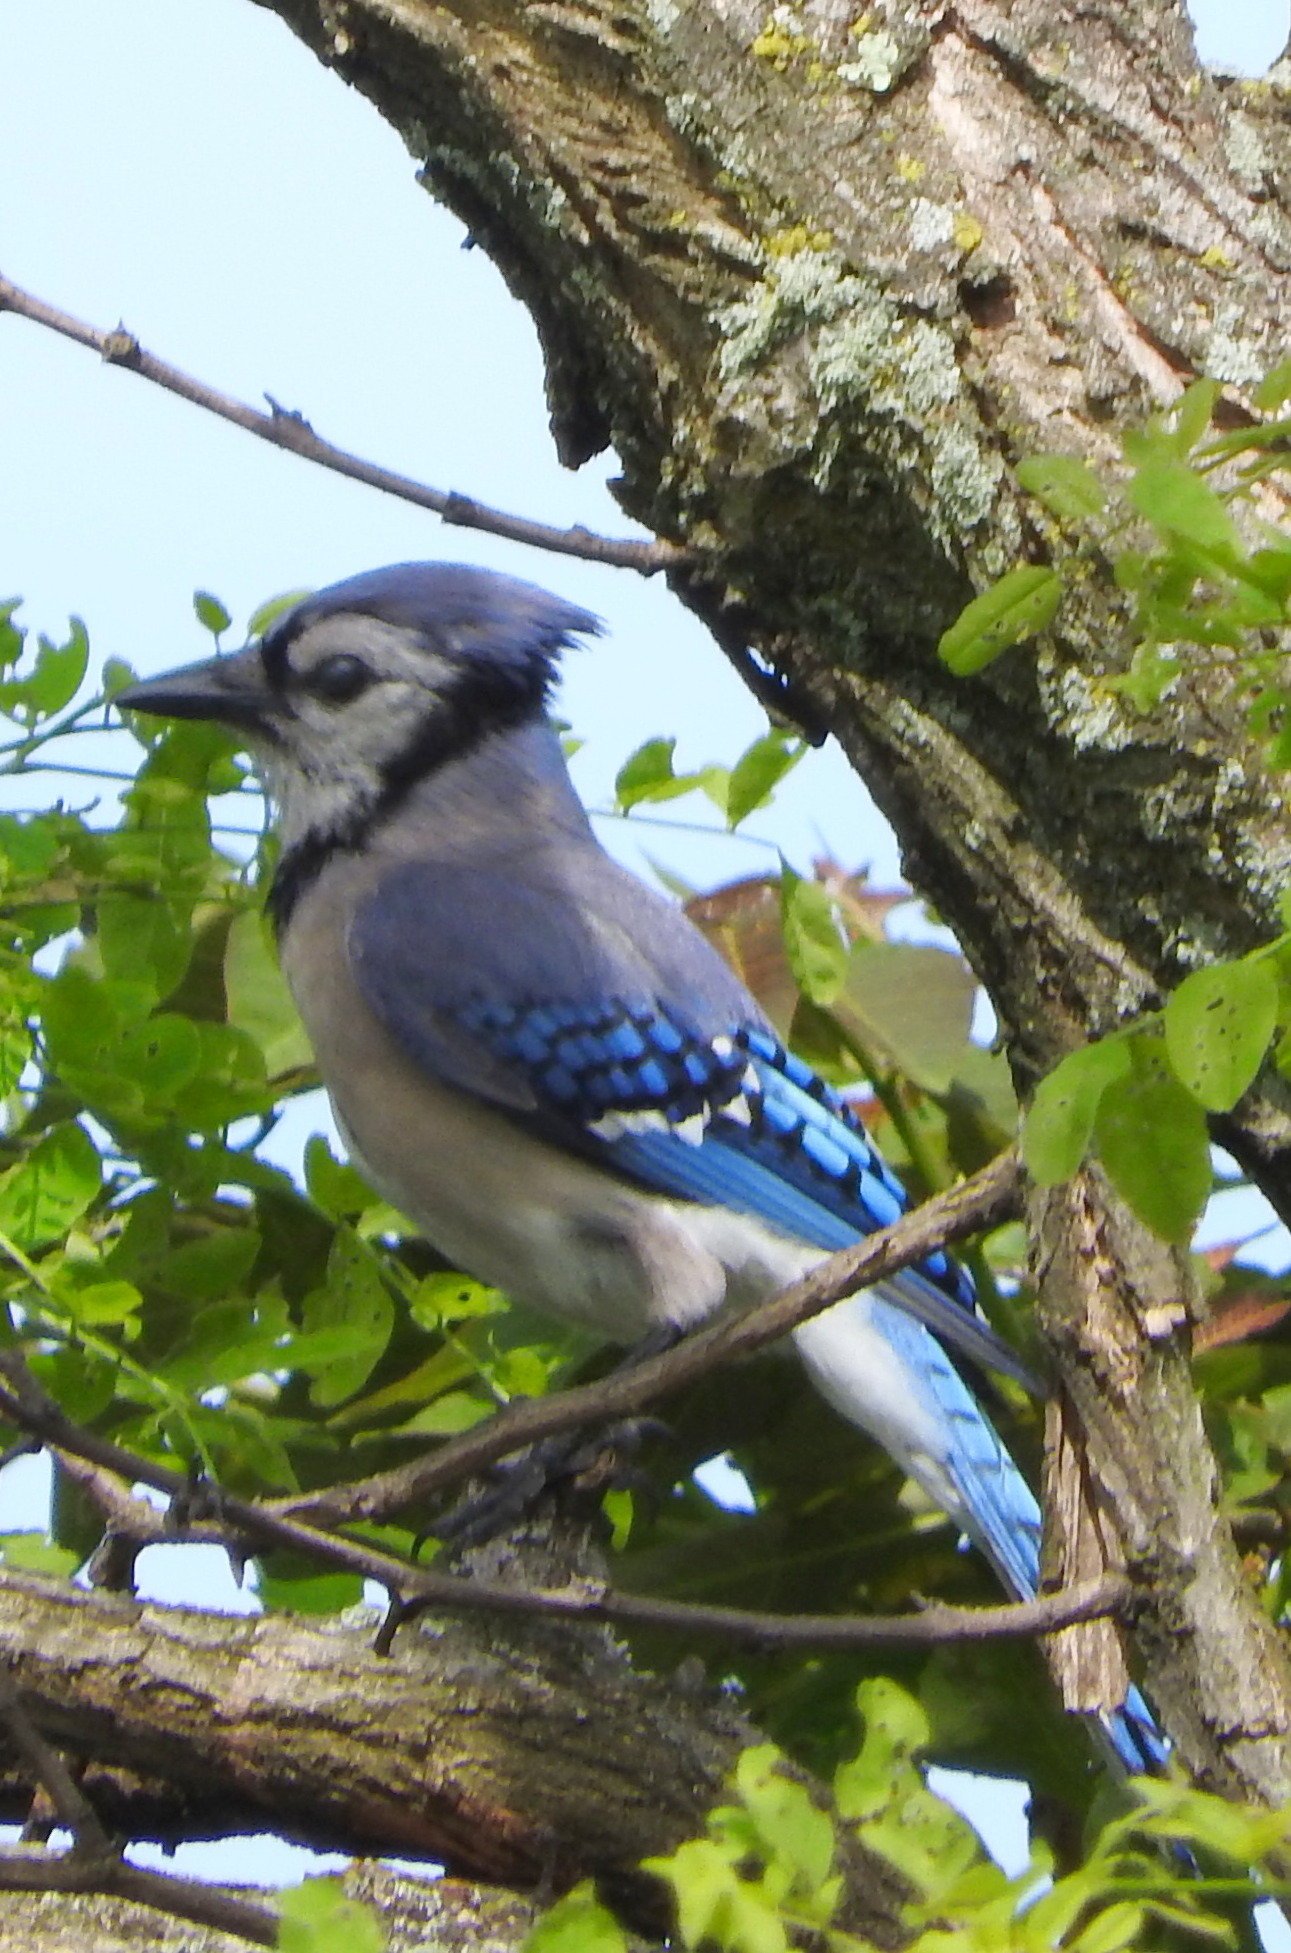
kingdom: Animalia
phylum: Chordata
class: Aves
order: Passeriformes
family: Corvidae
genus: Cyanocitta
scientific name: Cyanocitta cristata
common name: Blue jay
